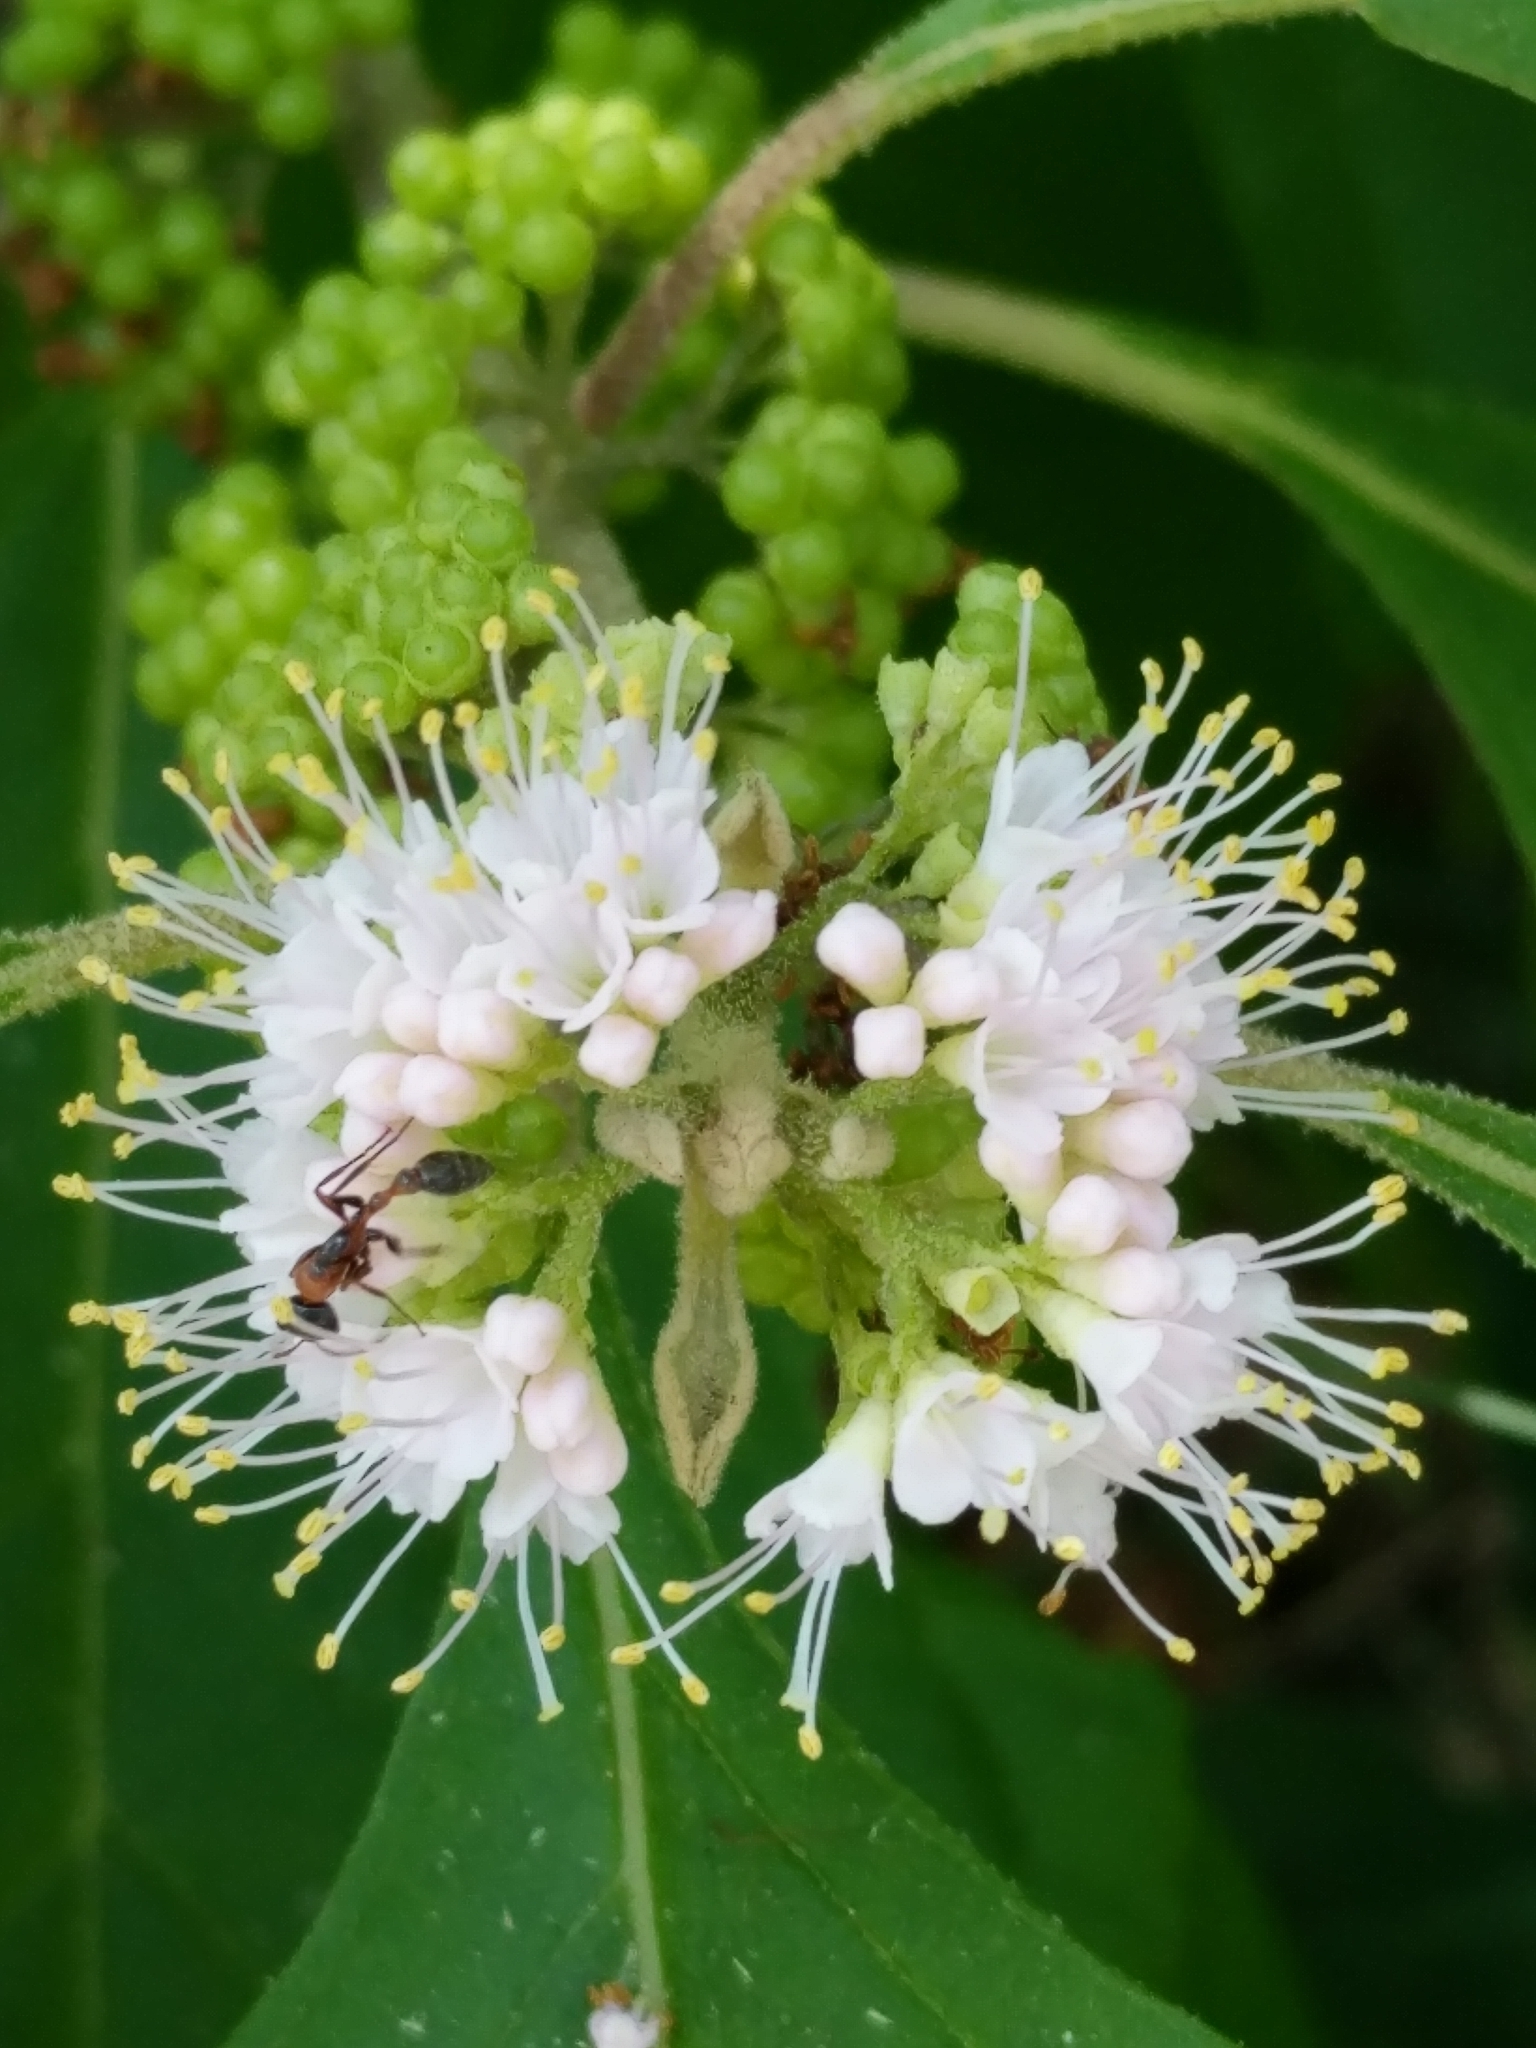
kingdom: Plantae
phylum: Tracheophyta
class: Magnoliopsida
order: Lamiales
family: Lamiaceae
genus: Callicarpa
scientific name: Callicarpa americana
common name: American beautyberry
